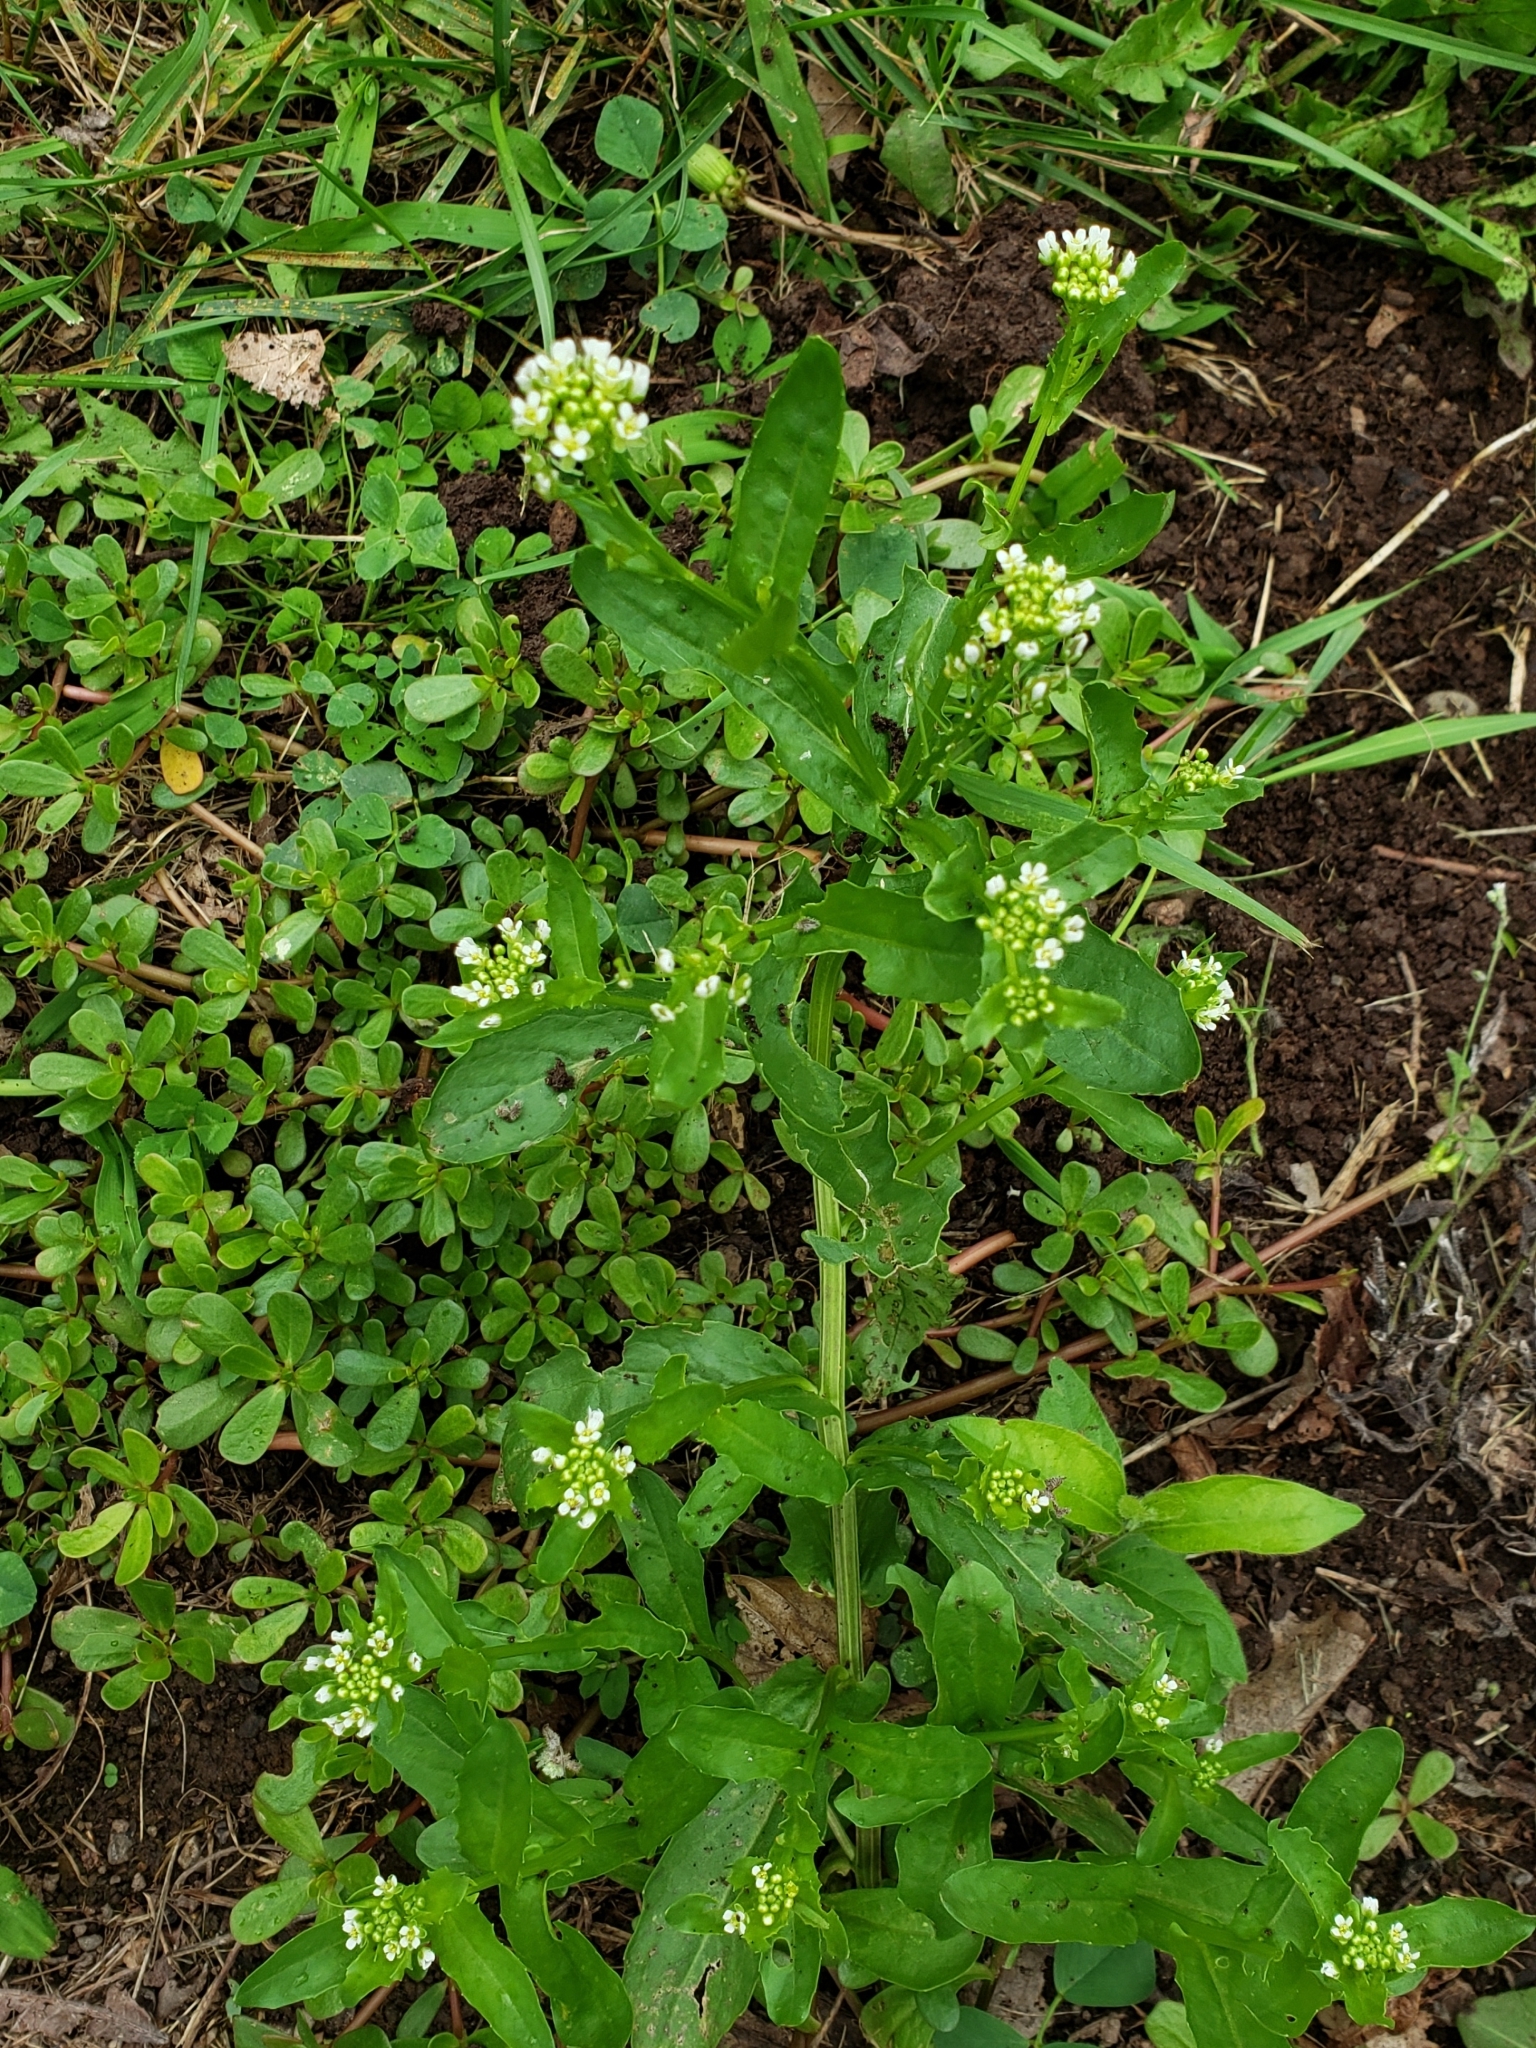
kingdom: Plantae
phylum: Tracheophyta
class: Magnoliopsida
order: Brassicales
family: Brassicaceae
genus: Thlaspi
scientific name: Thlaspi arvense
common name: Field pennycress
